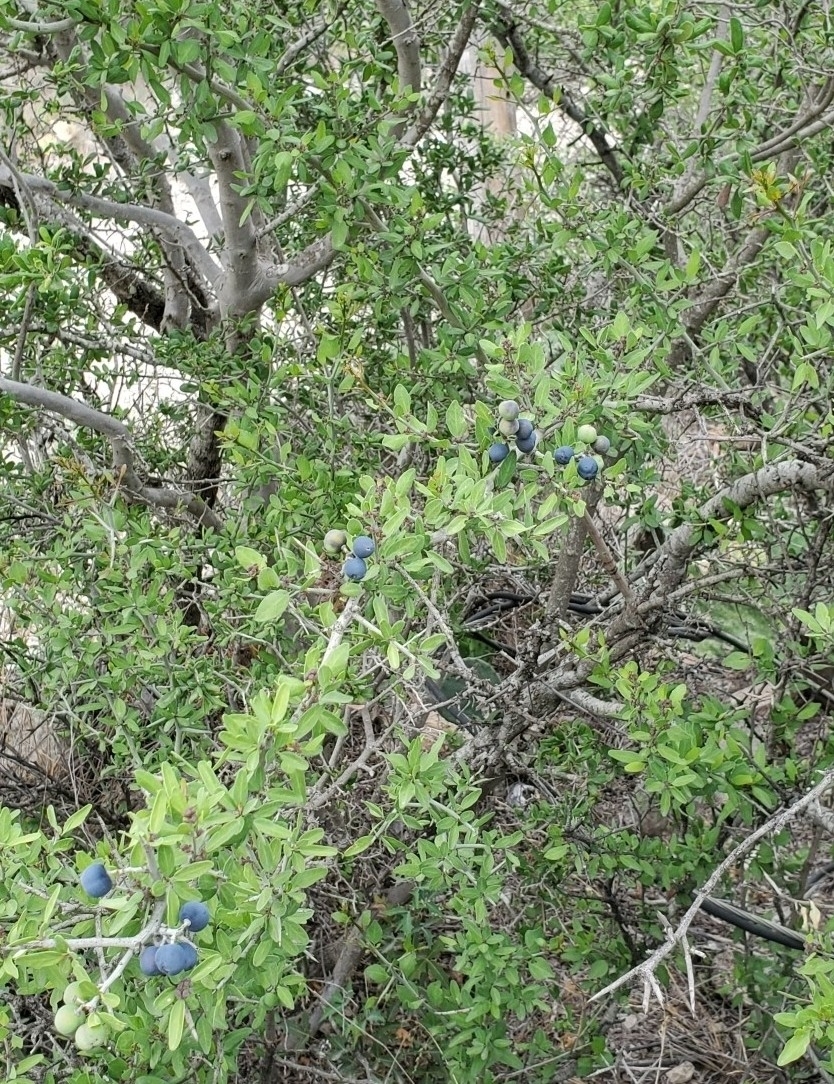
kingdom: Plantae
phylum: Tracheophyta
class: Magnoliopsida
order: Rosales
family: Rhamnaceae
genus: Sarcomphalus
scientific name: Sarcomphalus obtusifolius
